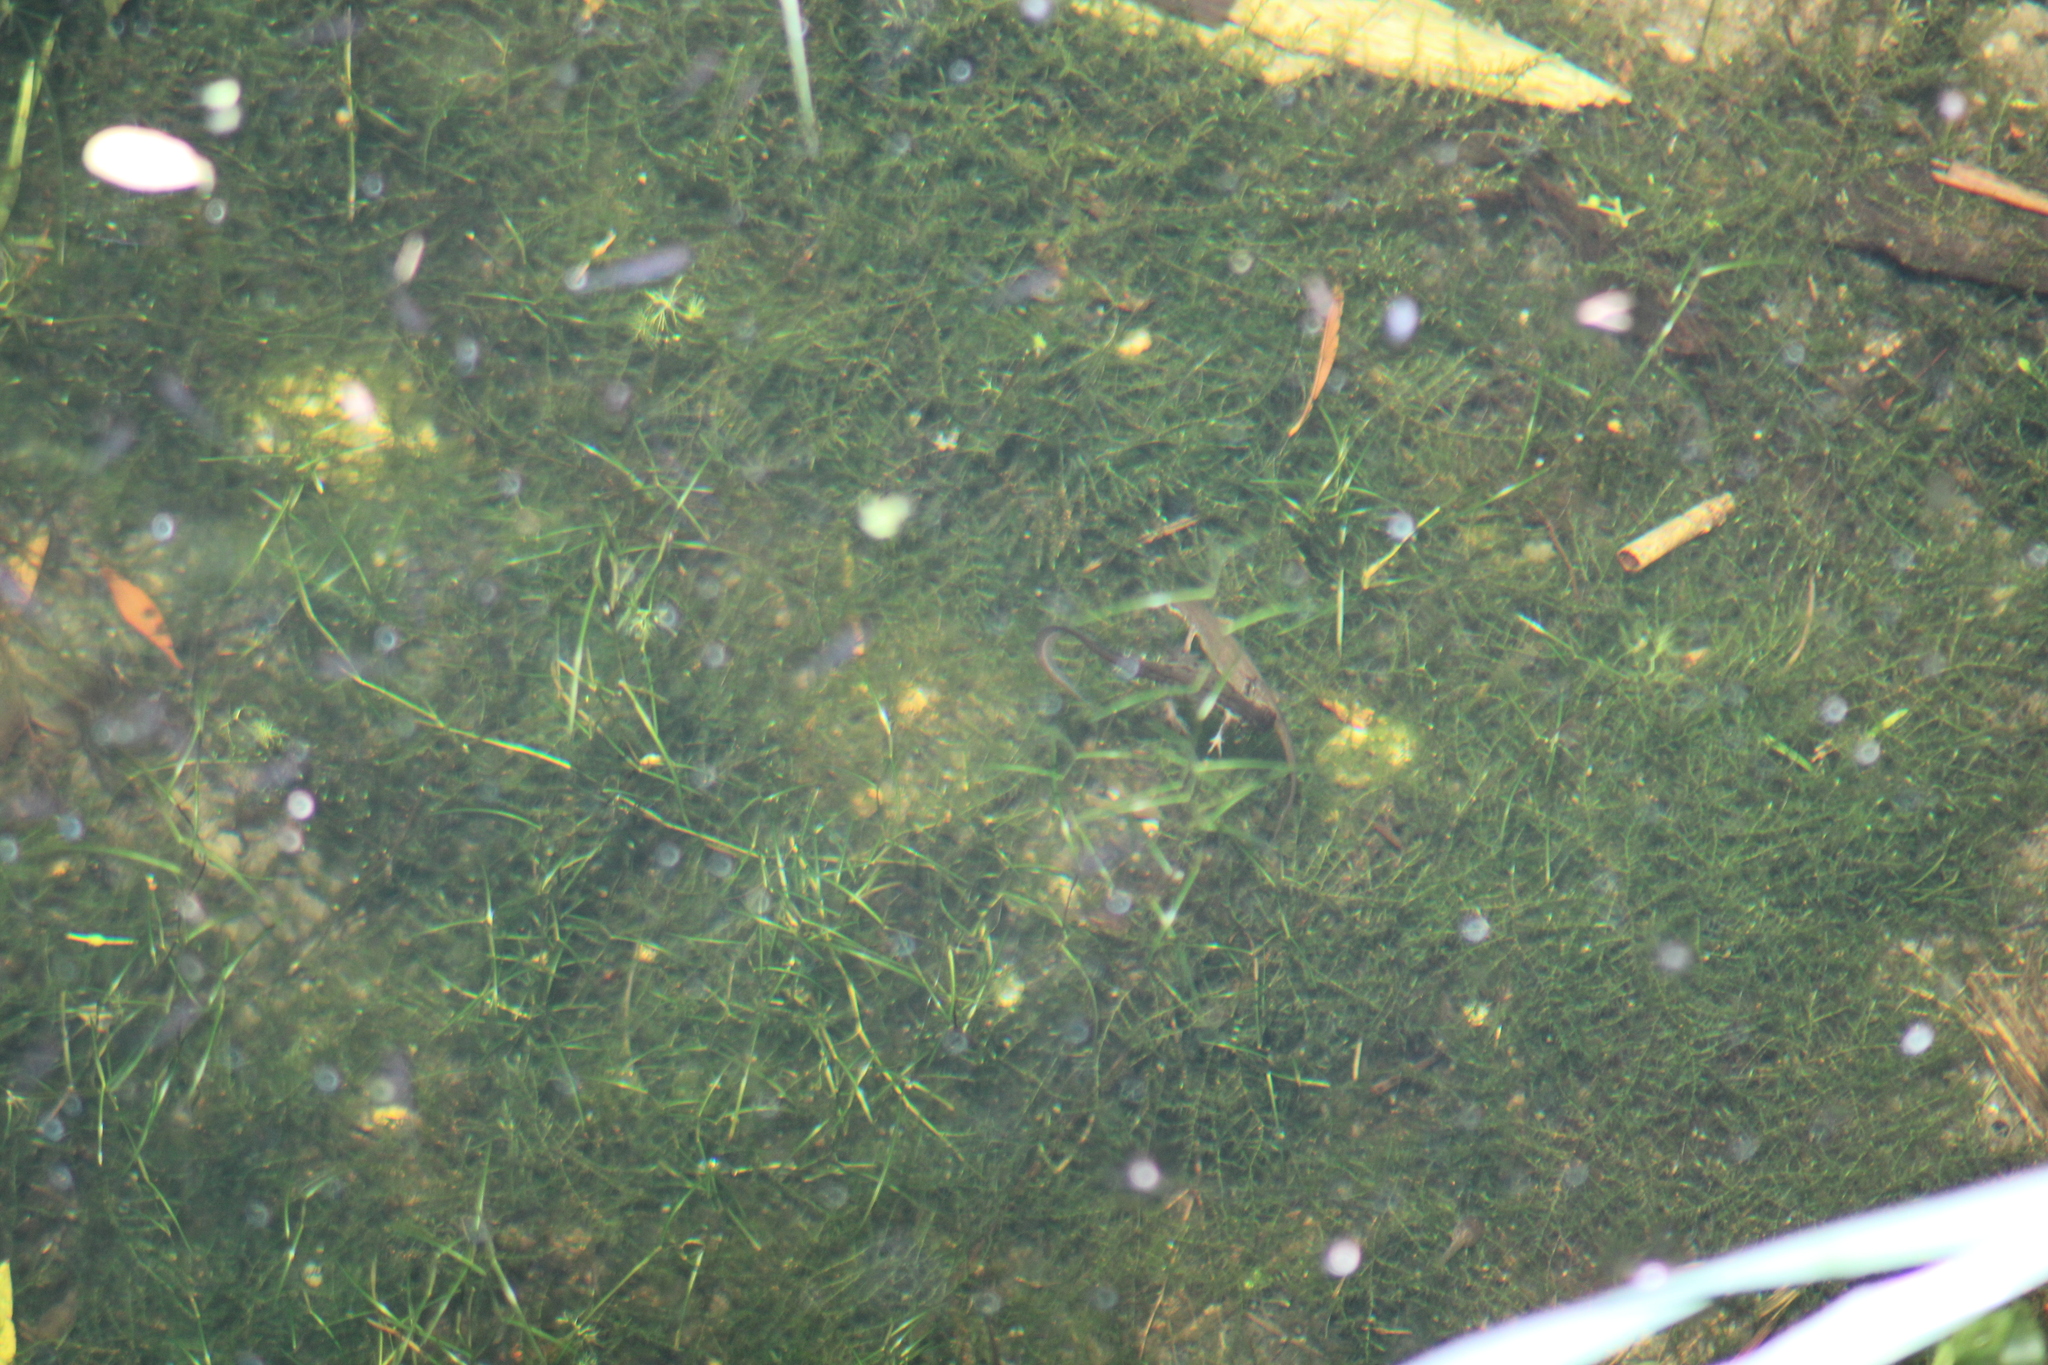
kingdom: Animalia
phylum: Chordata
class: Amphibia
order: Caudata
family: Salamandridae
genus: Lissotriton
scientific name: Lissotriton vulgaris
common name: Smooth newt
